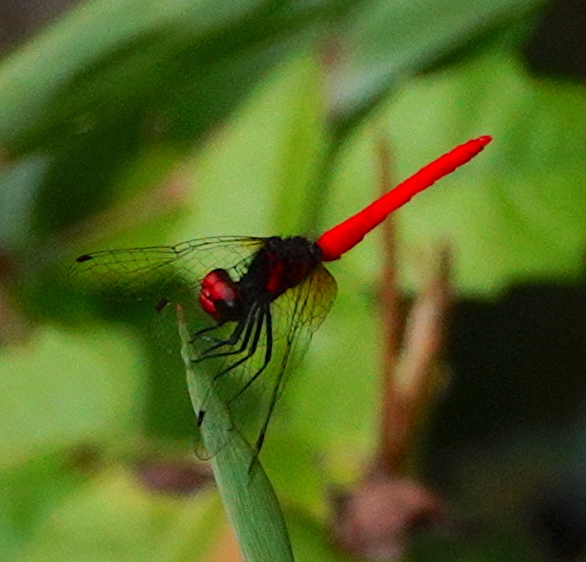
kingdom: Animalia
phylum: Arthropoda
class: Insecta
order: Odonata
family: Libellulidae
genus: Nannophya
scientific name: Nannophya pygmaea
